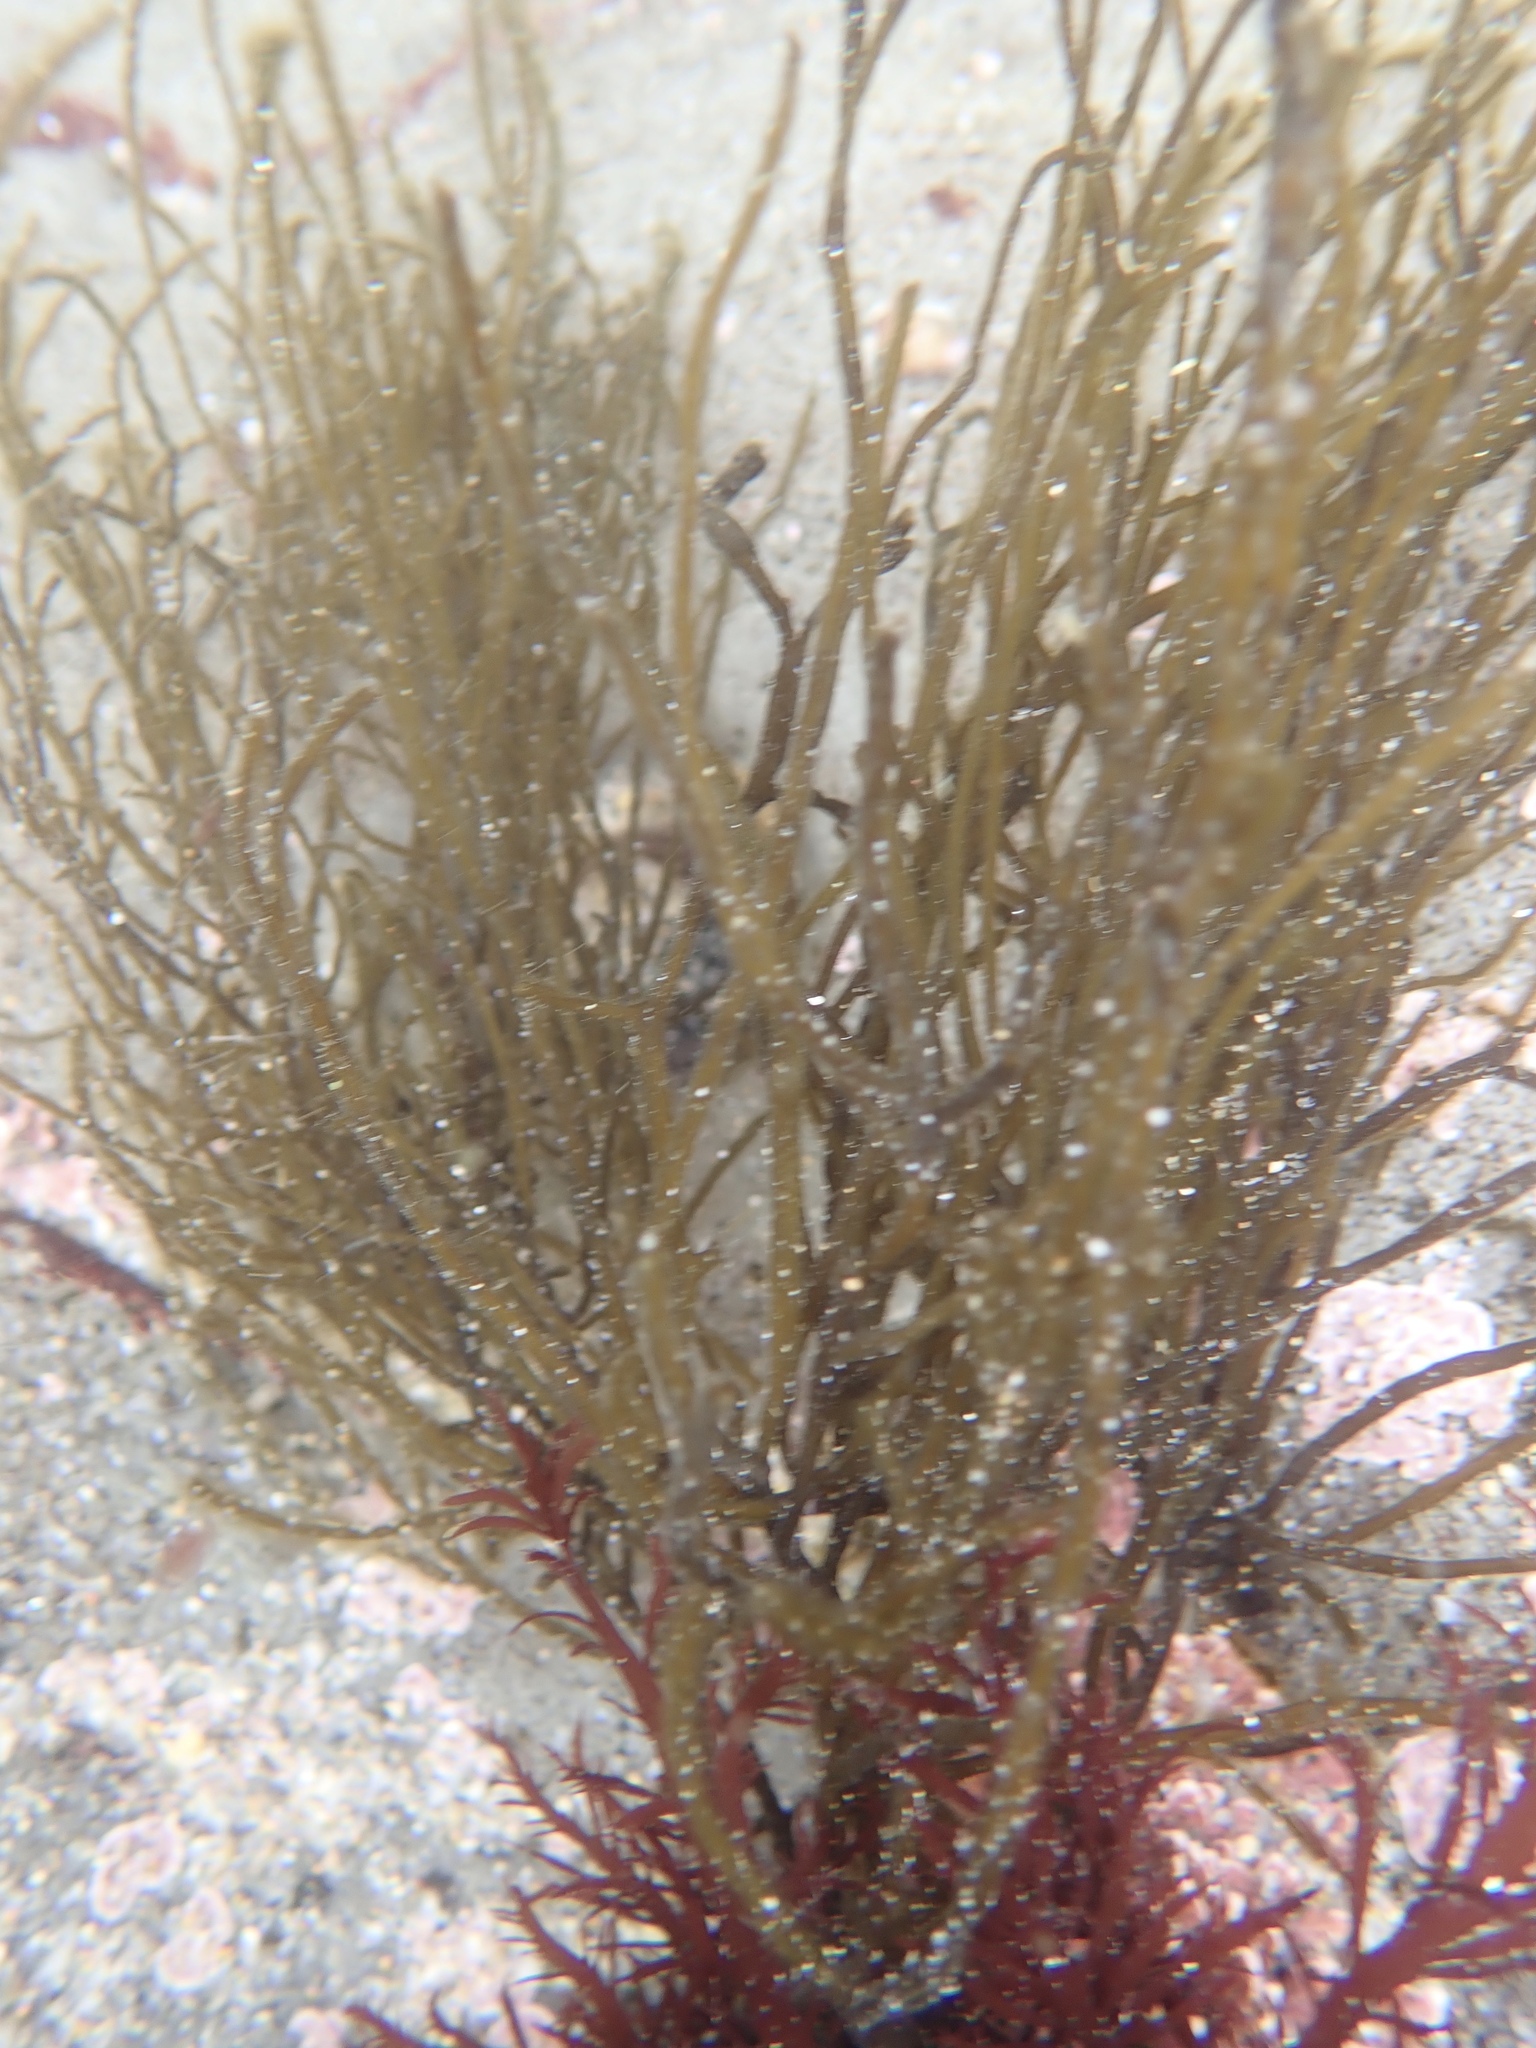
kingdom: Chromista
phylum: Ochrophyta
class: Phaeophyceae
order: Ectocarpales
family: Chordariaceae
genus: Haplogloia
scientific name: Haplogloia andersonii
